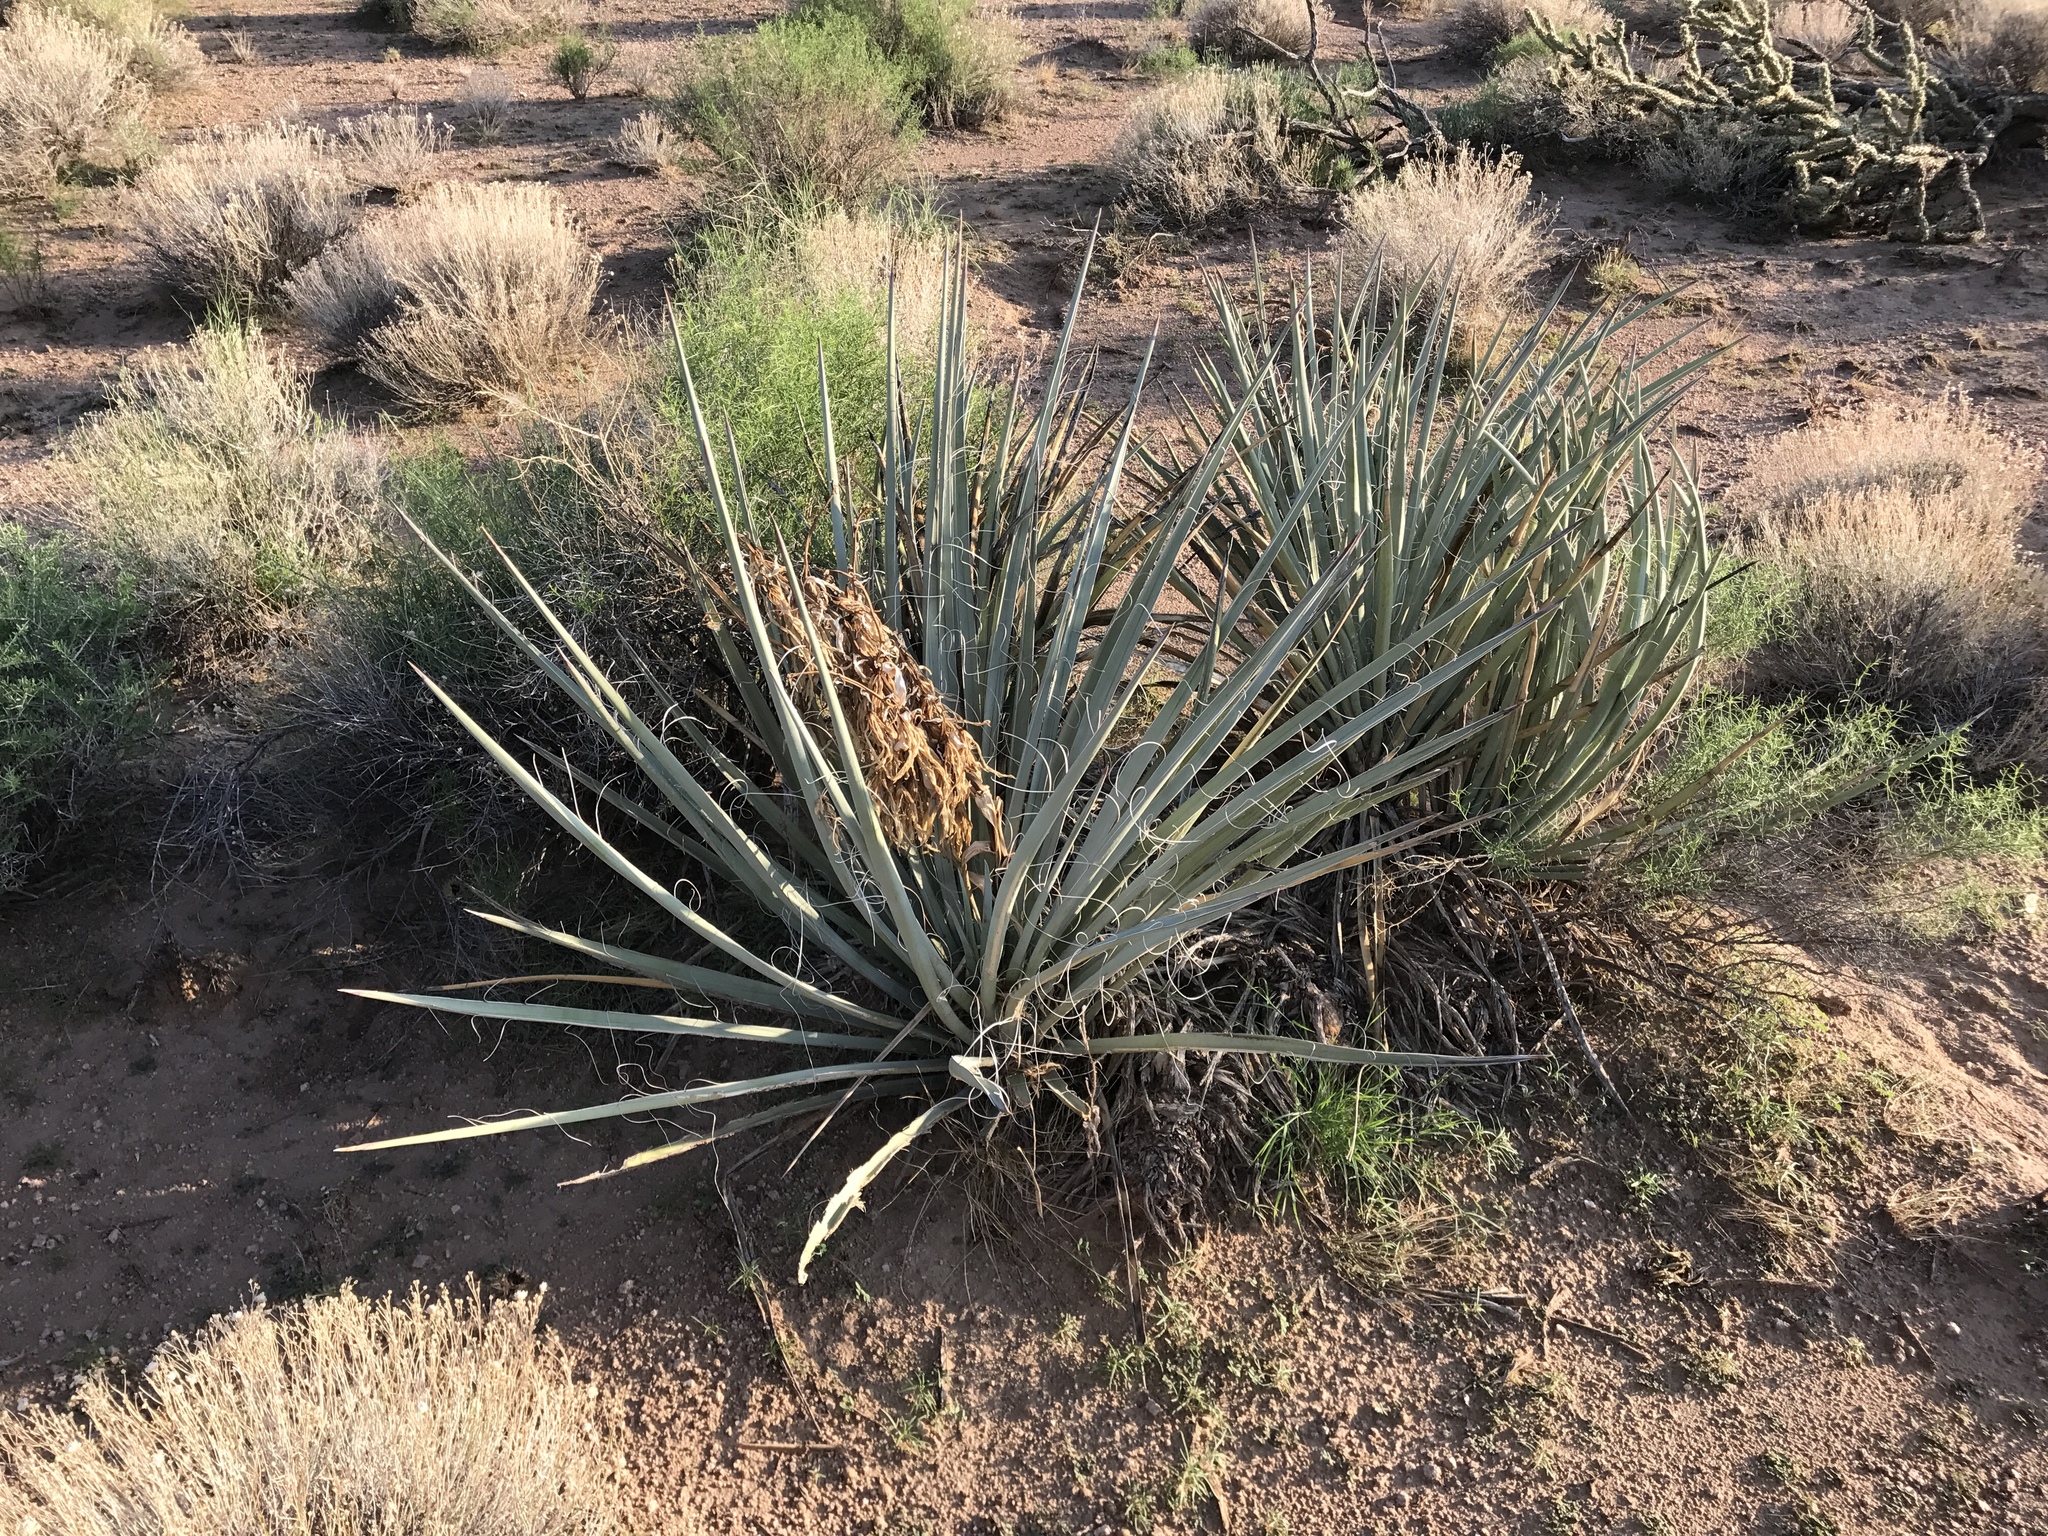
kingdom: Plantae
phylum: Tracheophyta
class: Liliopsida
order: Asparagales
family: Asparagaceae
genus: Yucca
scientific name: Yucca baccata
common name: Banana yucca
